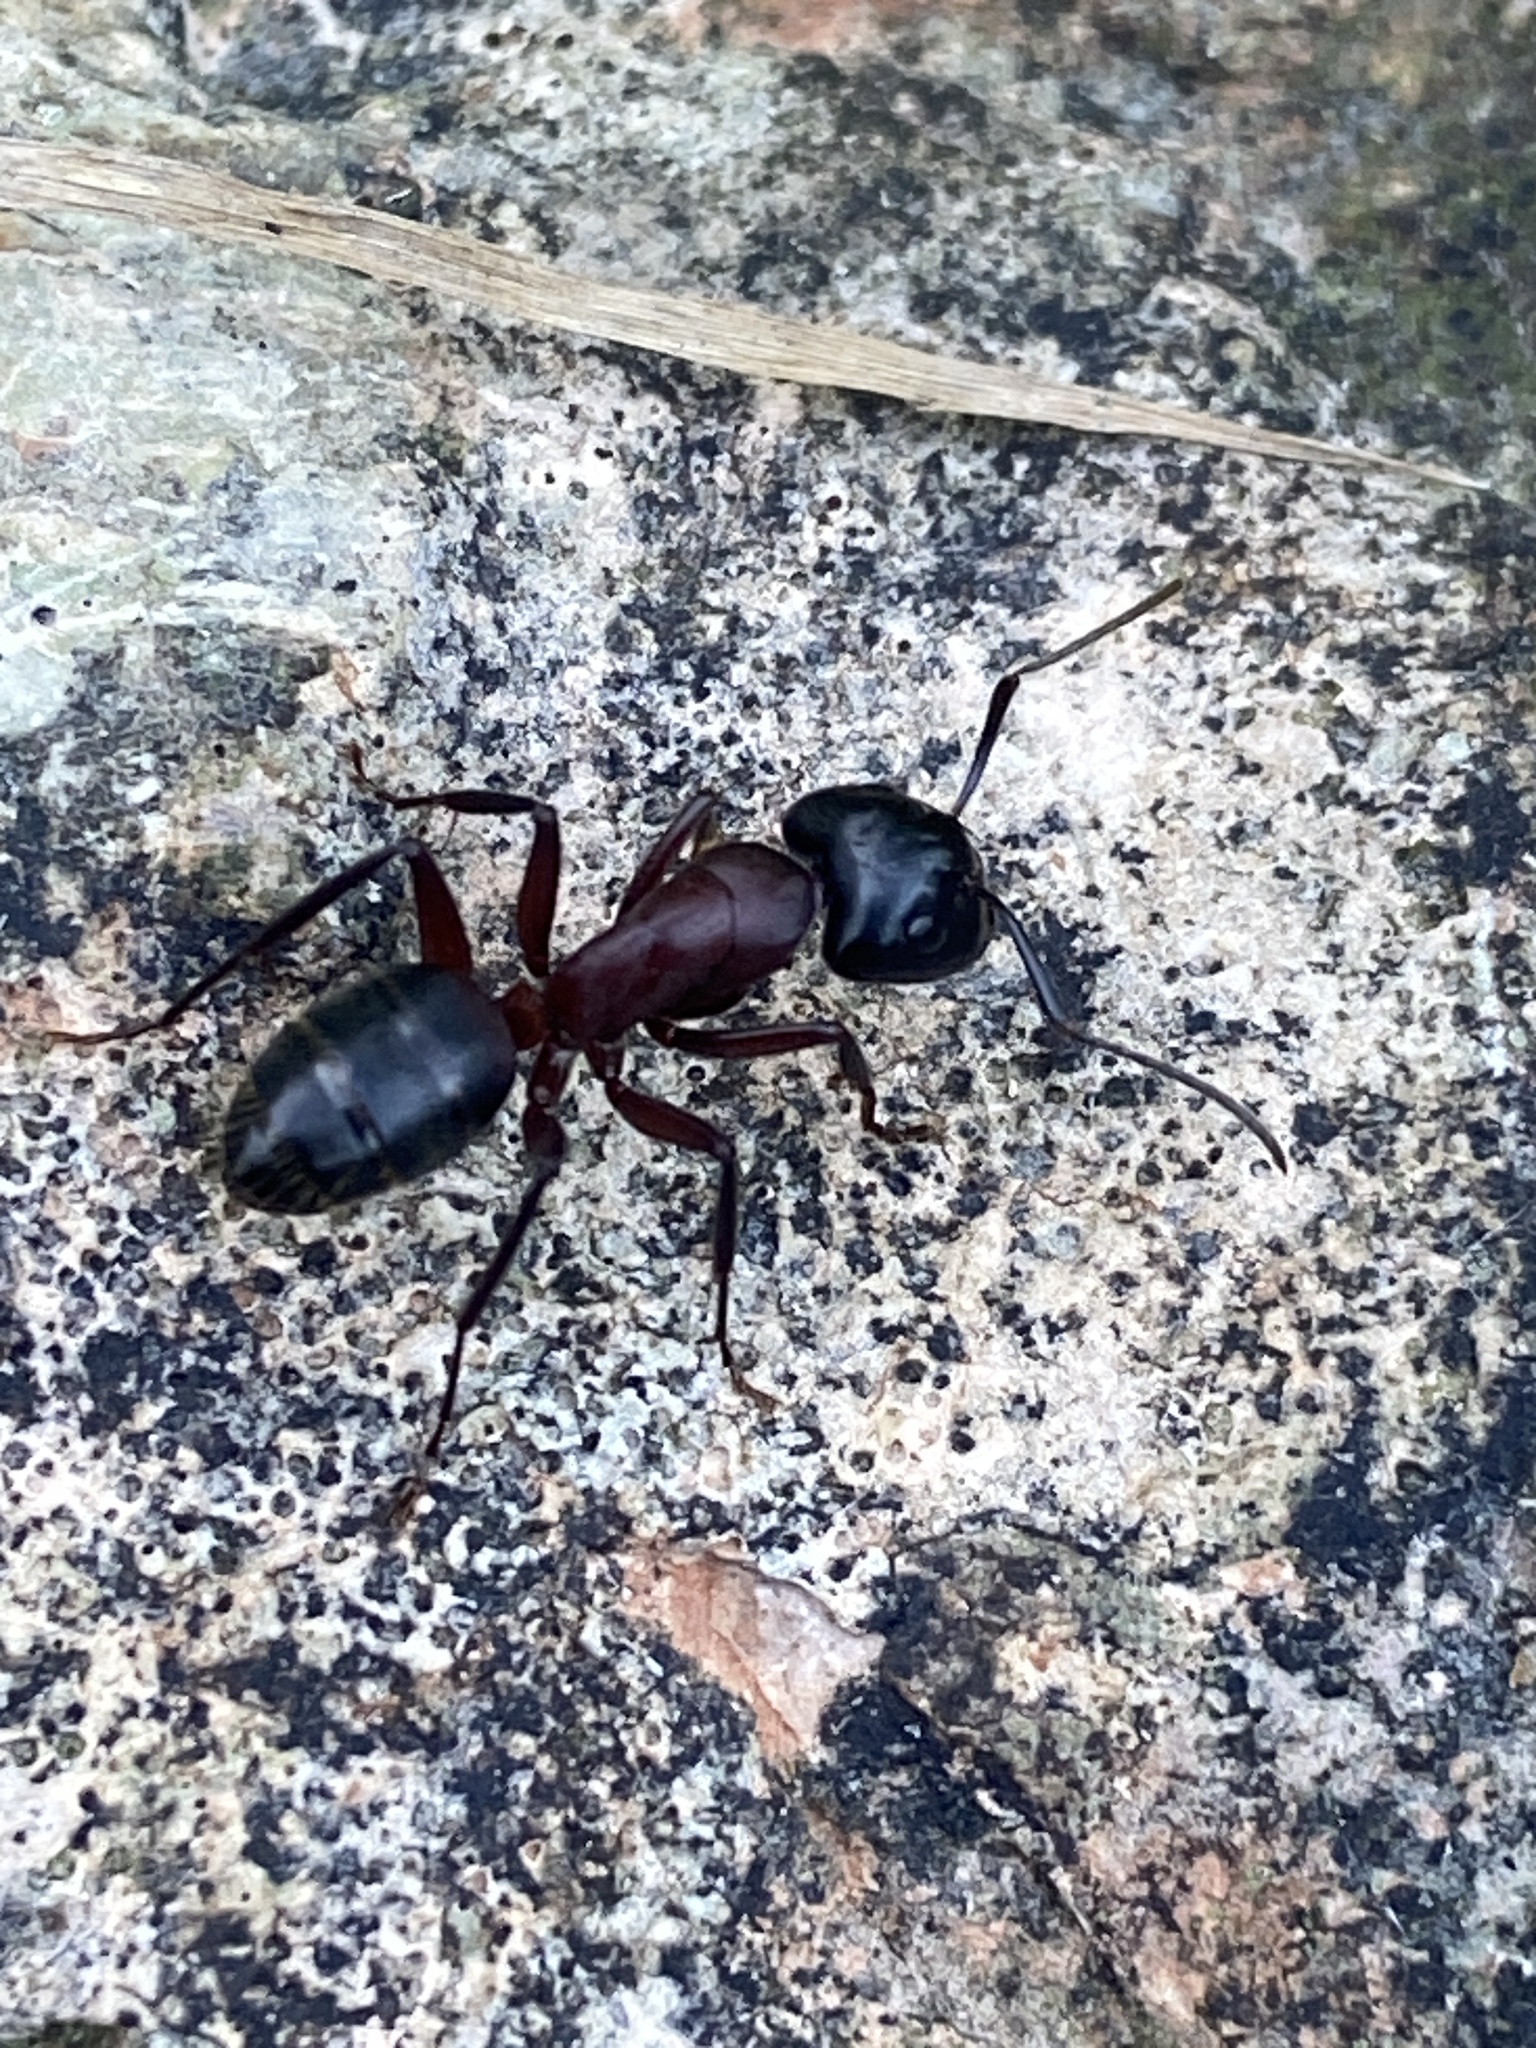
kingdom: Animalia
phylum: Arthropoda
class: Insecta
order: Hymenoptera
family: Formicidae
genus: Camponotus
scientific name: Camponotus ligniperdus
